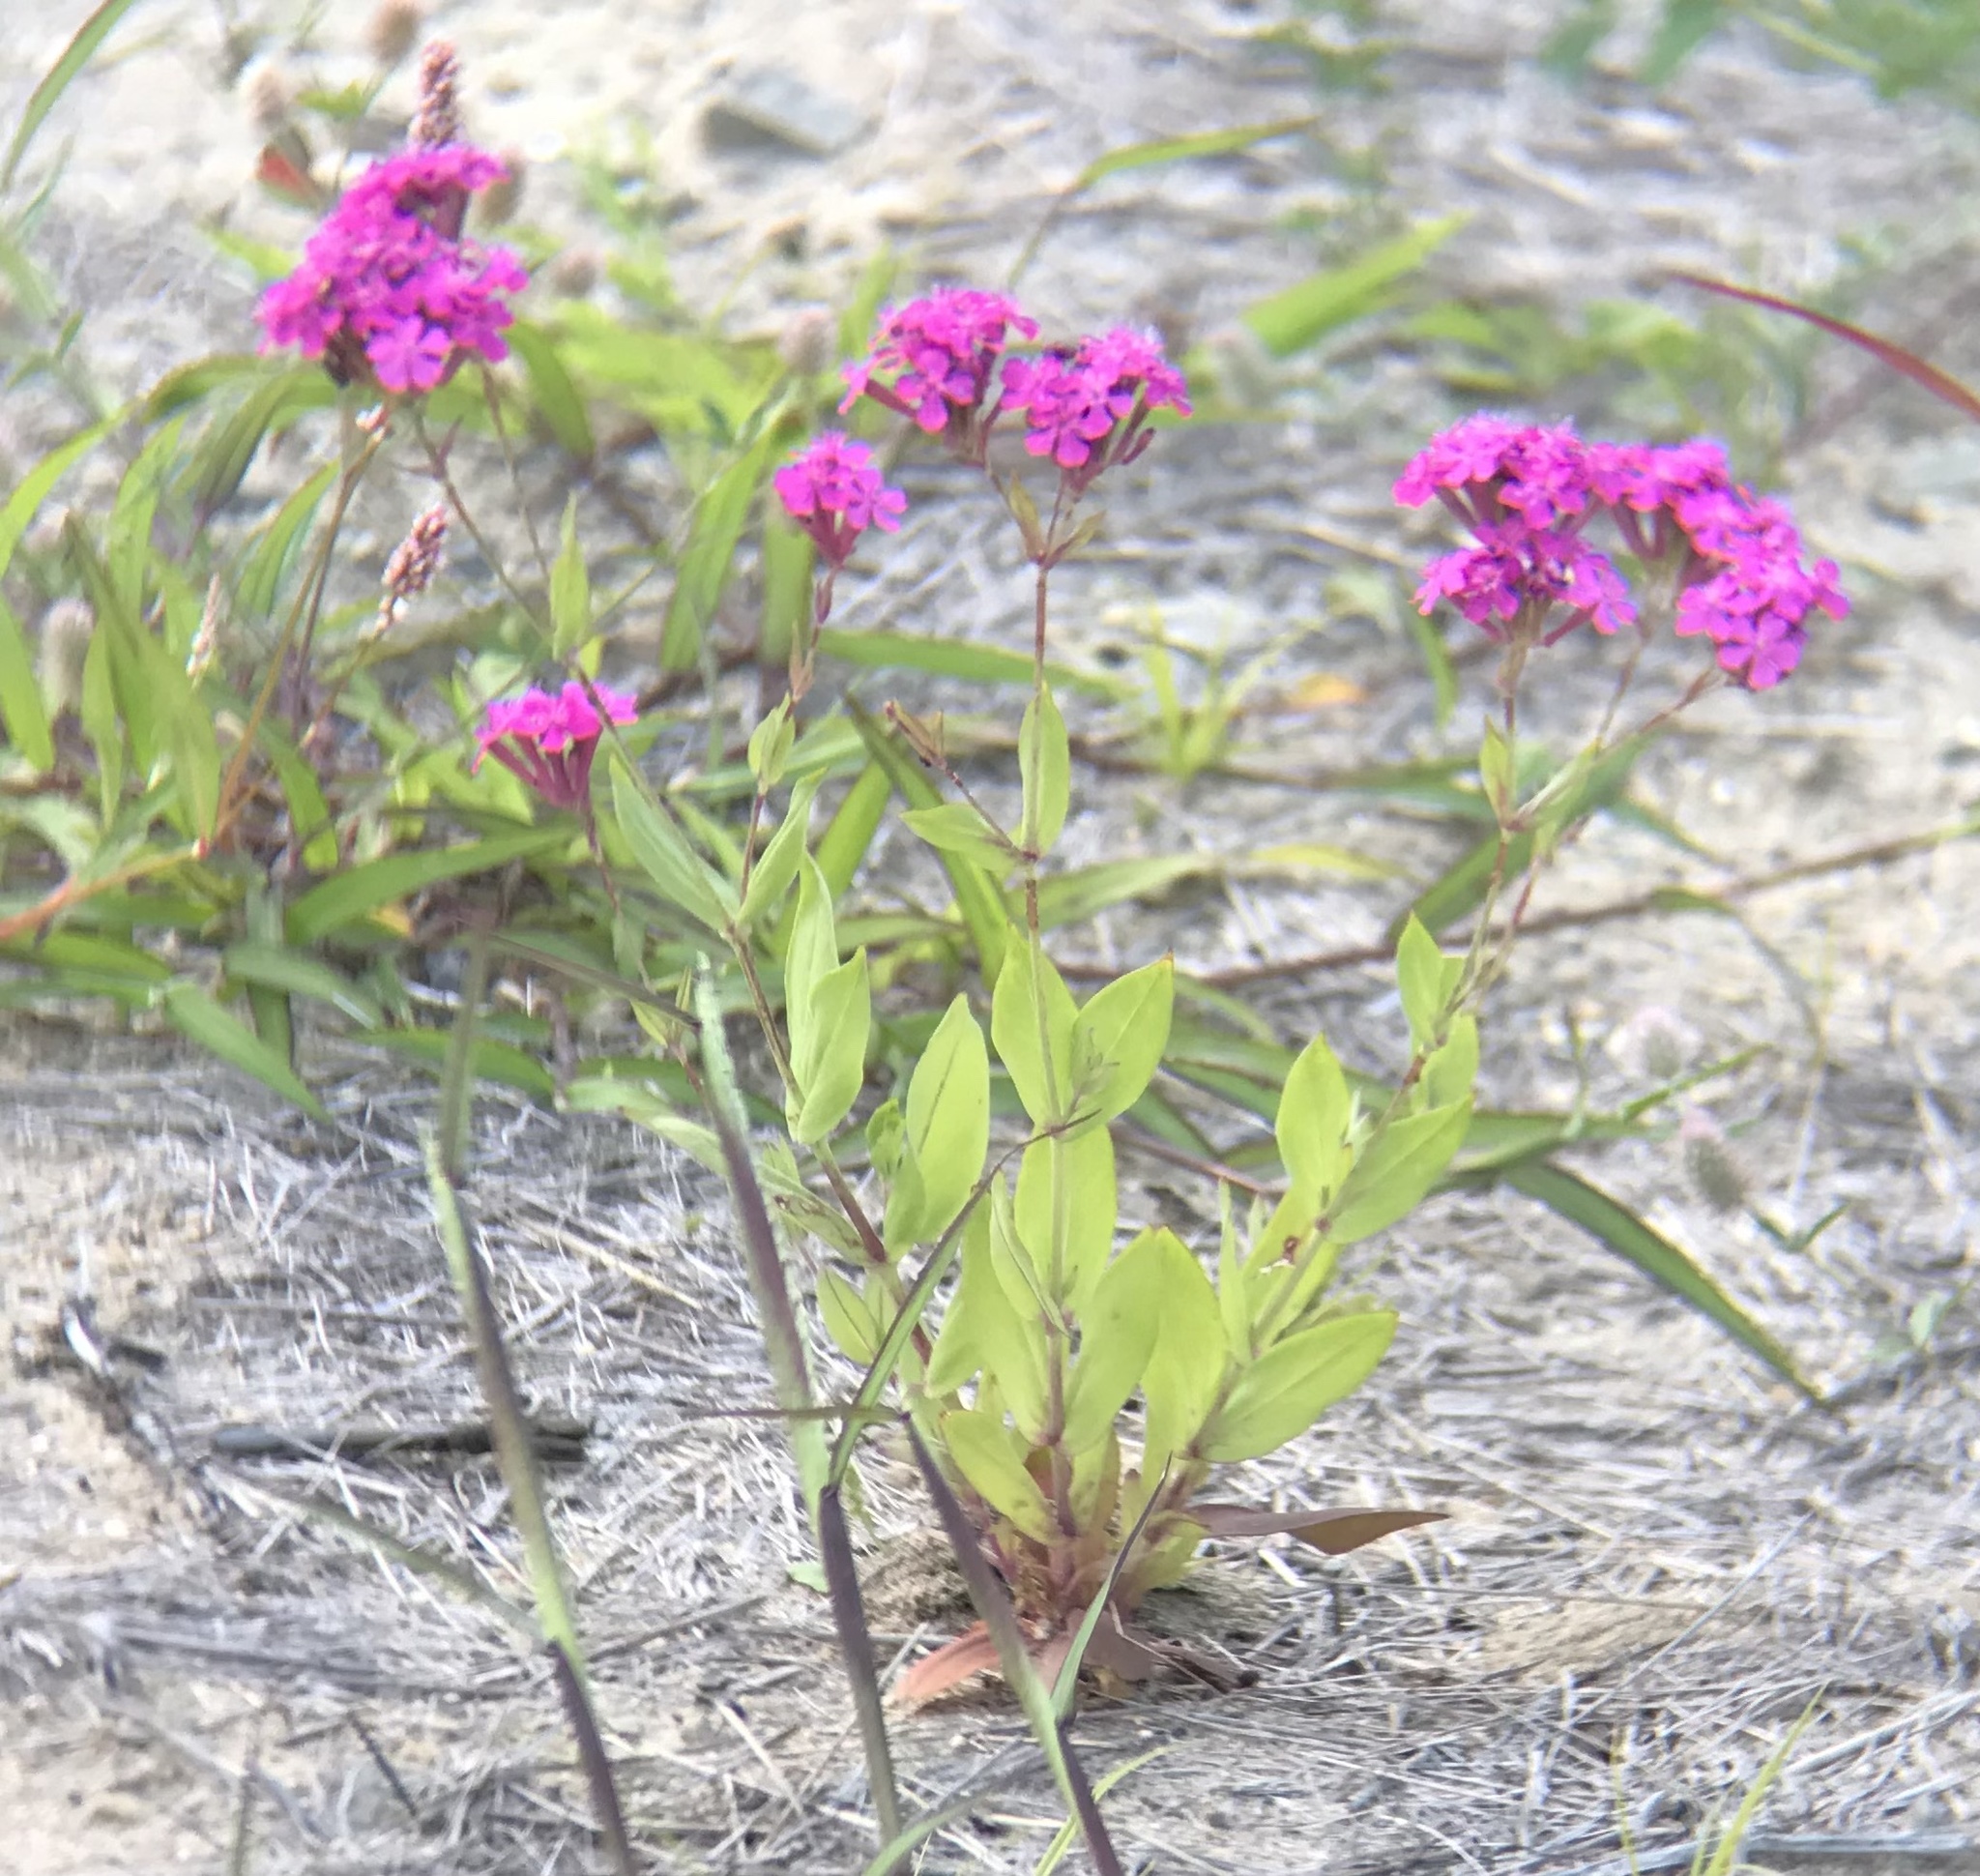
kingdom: Plantae
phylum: Tracheophyta
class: Magnoliopsida
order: Caryophyllales
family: Caryophyllaceae
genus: Atocion
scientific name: Atocion armeria
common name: Sweet william catchfly
